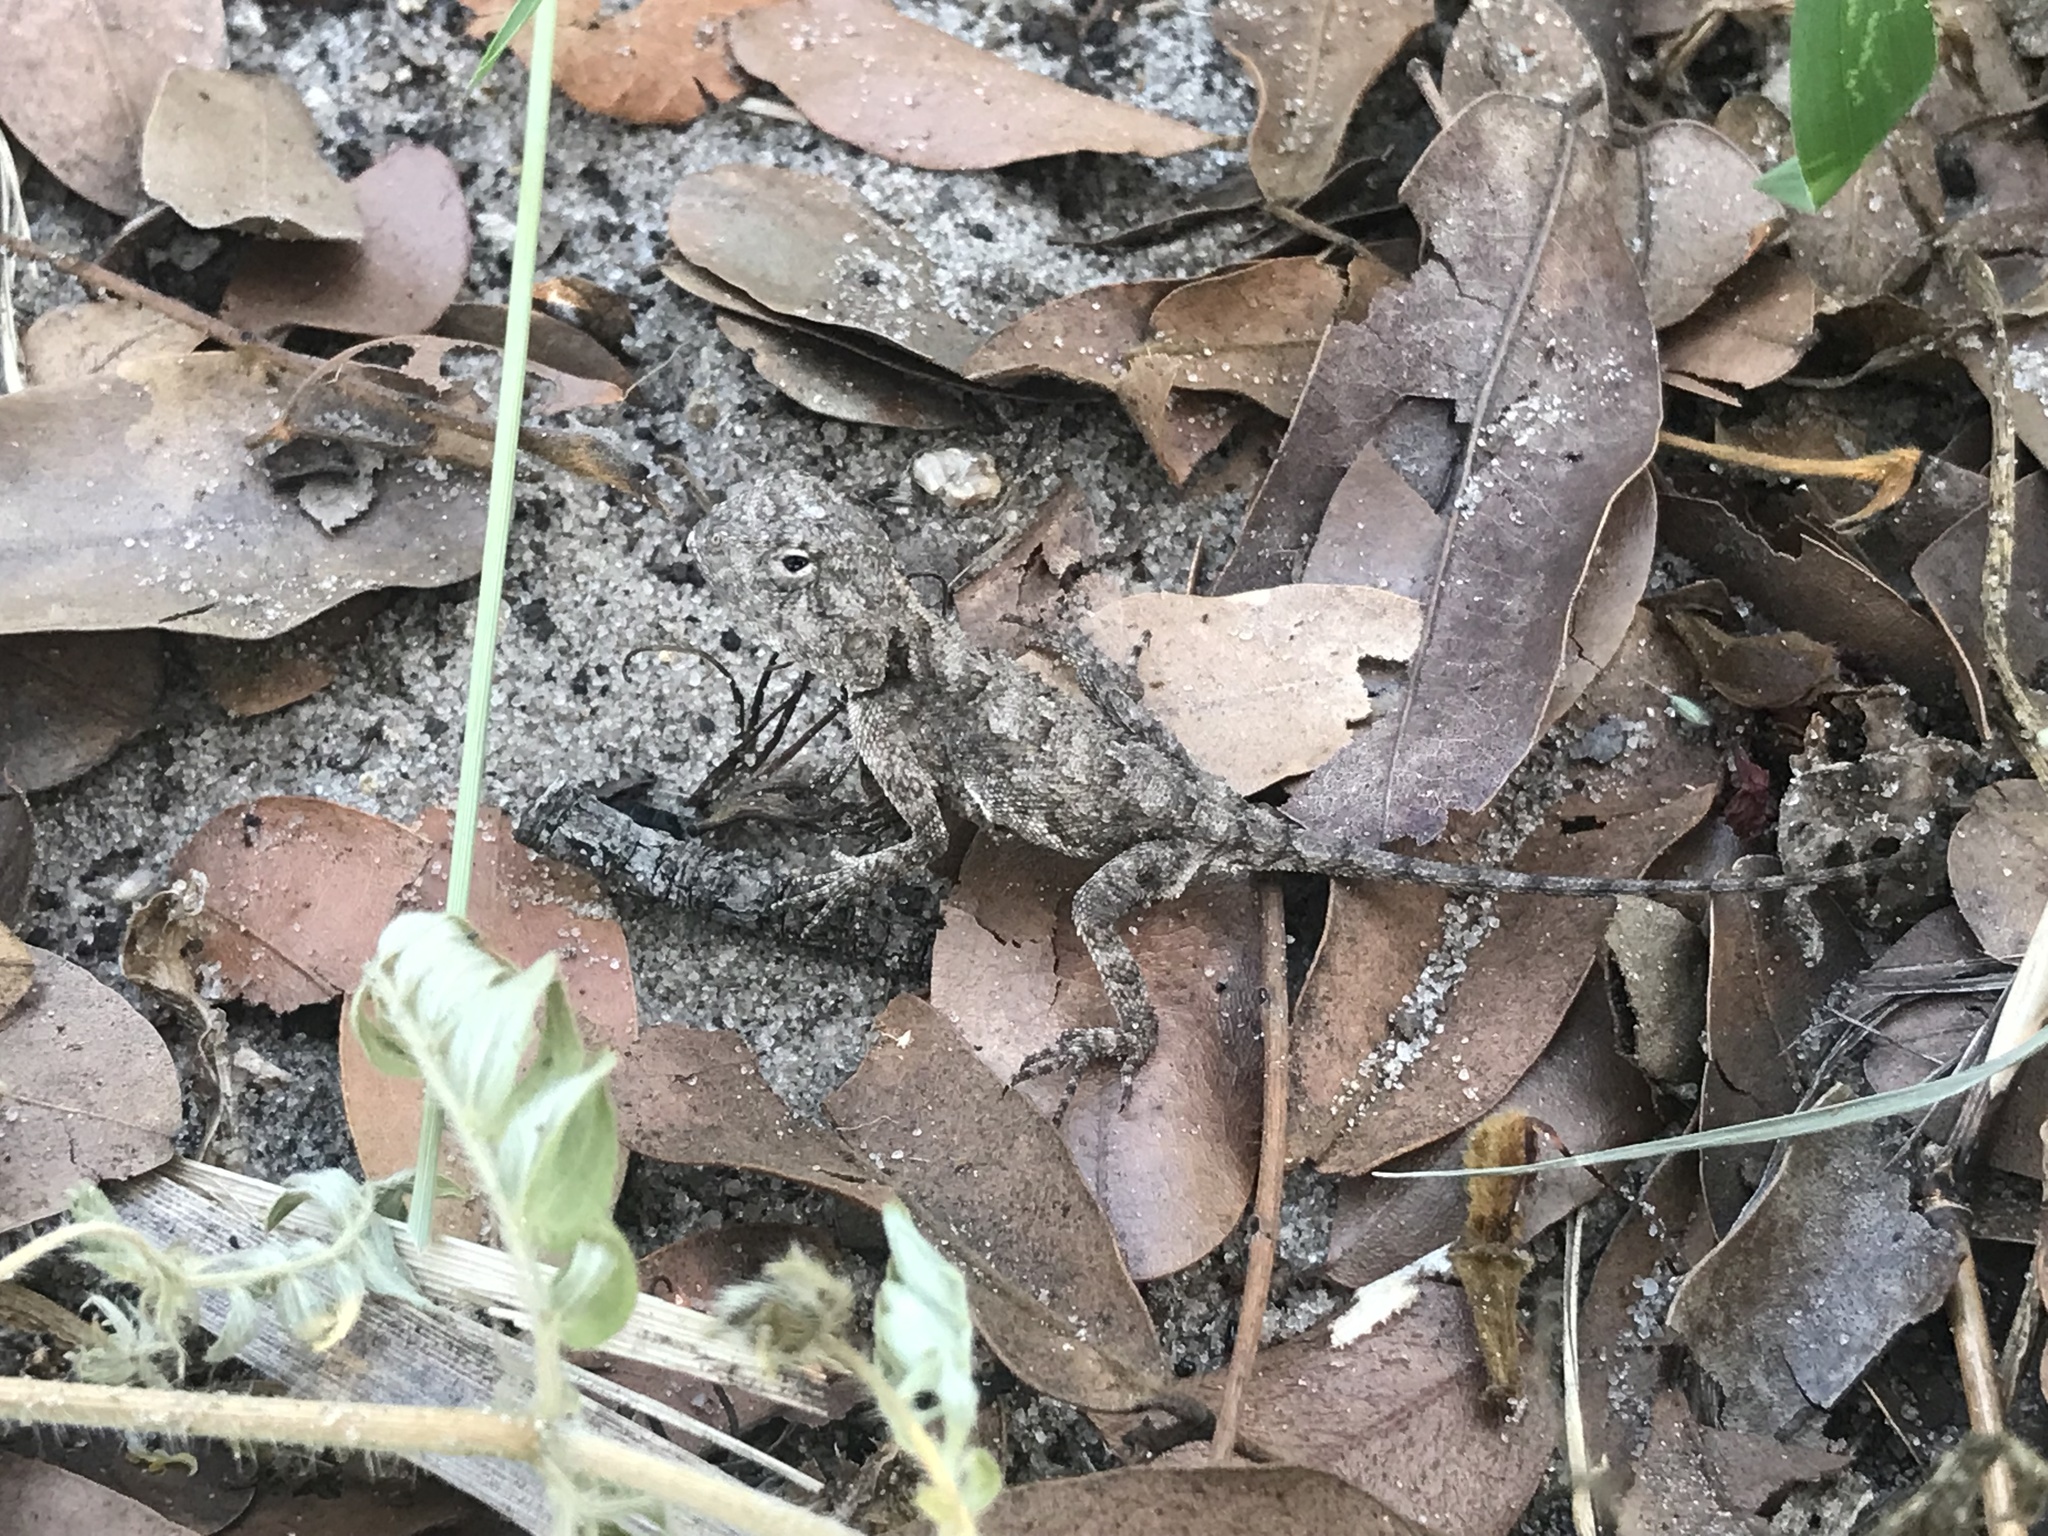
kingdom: Animalia
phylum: Chordata
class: Squamata
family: Agamidae
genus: Agama
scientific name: Agama armata
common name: Northern ground agama
